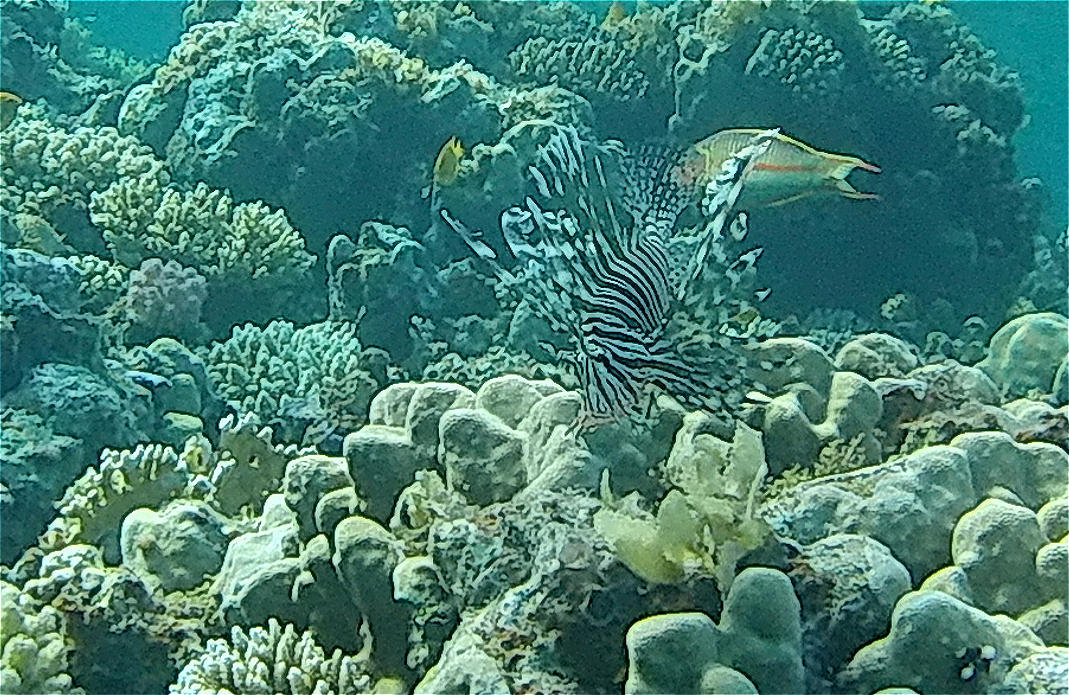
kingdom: Animalia
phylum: Chordata
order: Scorpaeniformes
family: Scorpaenidae
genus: Pterois
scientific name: Pterois miles
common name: Devil firefish
